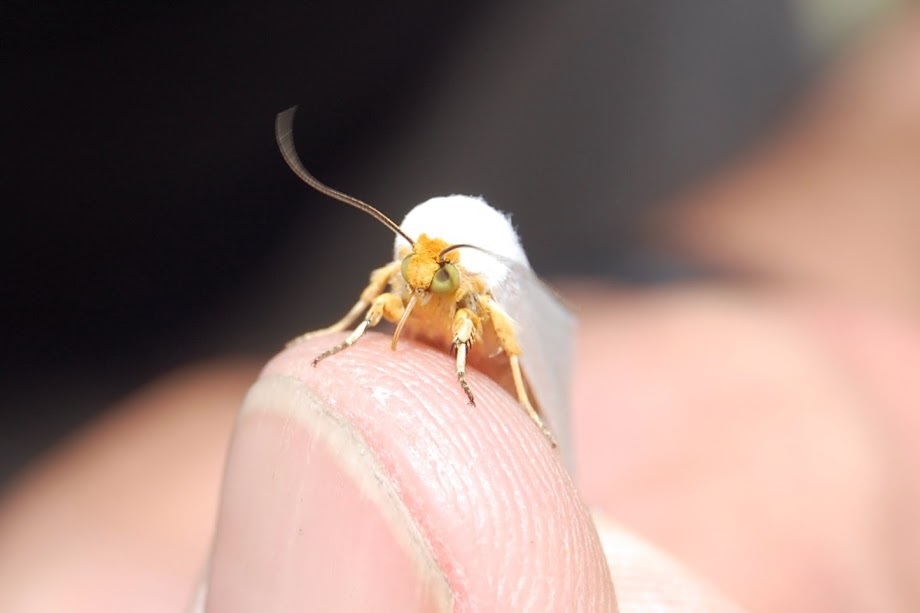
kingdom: Animalia
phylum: Arthropoda
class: Insecta
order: Lepidoptera
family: Noctuidae
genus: Schinia
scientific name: Schinia bimatris
